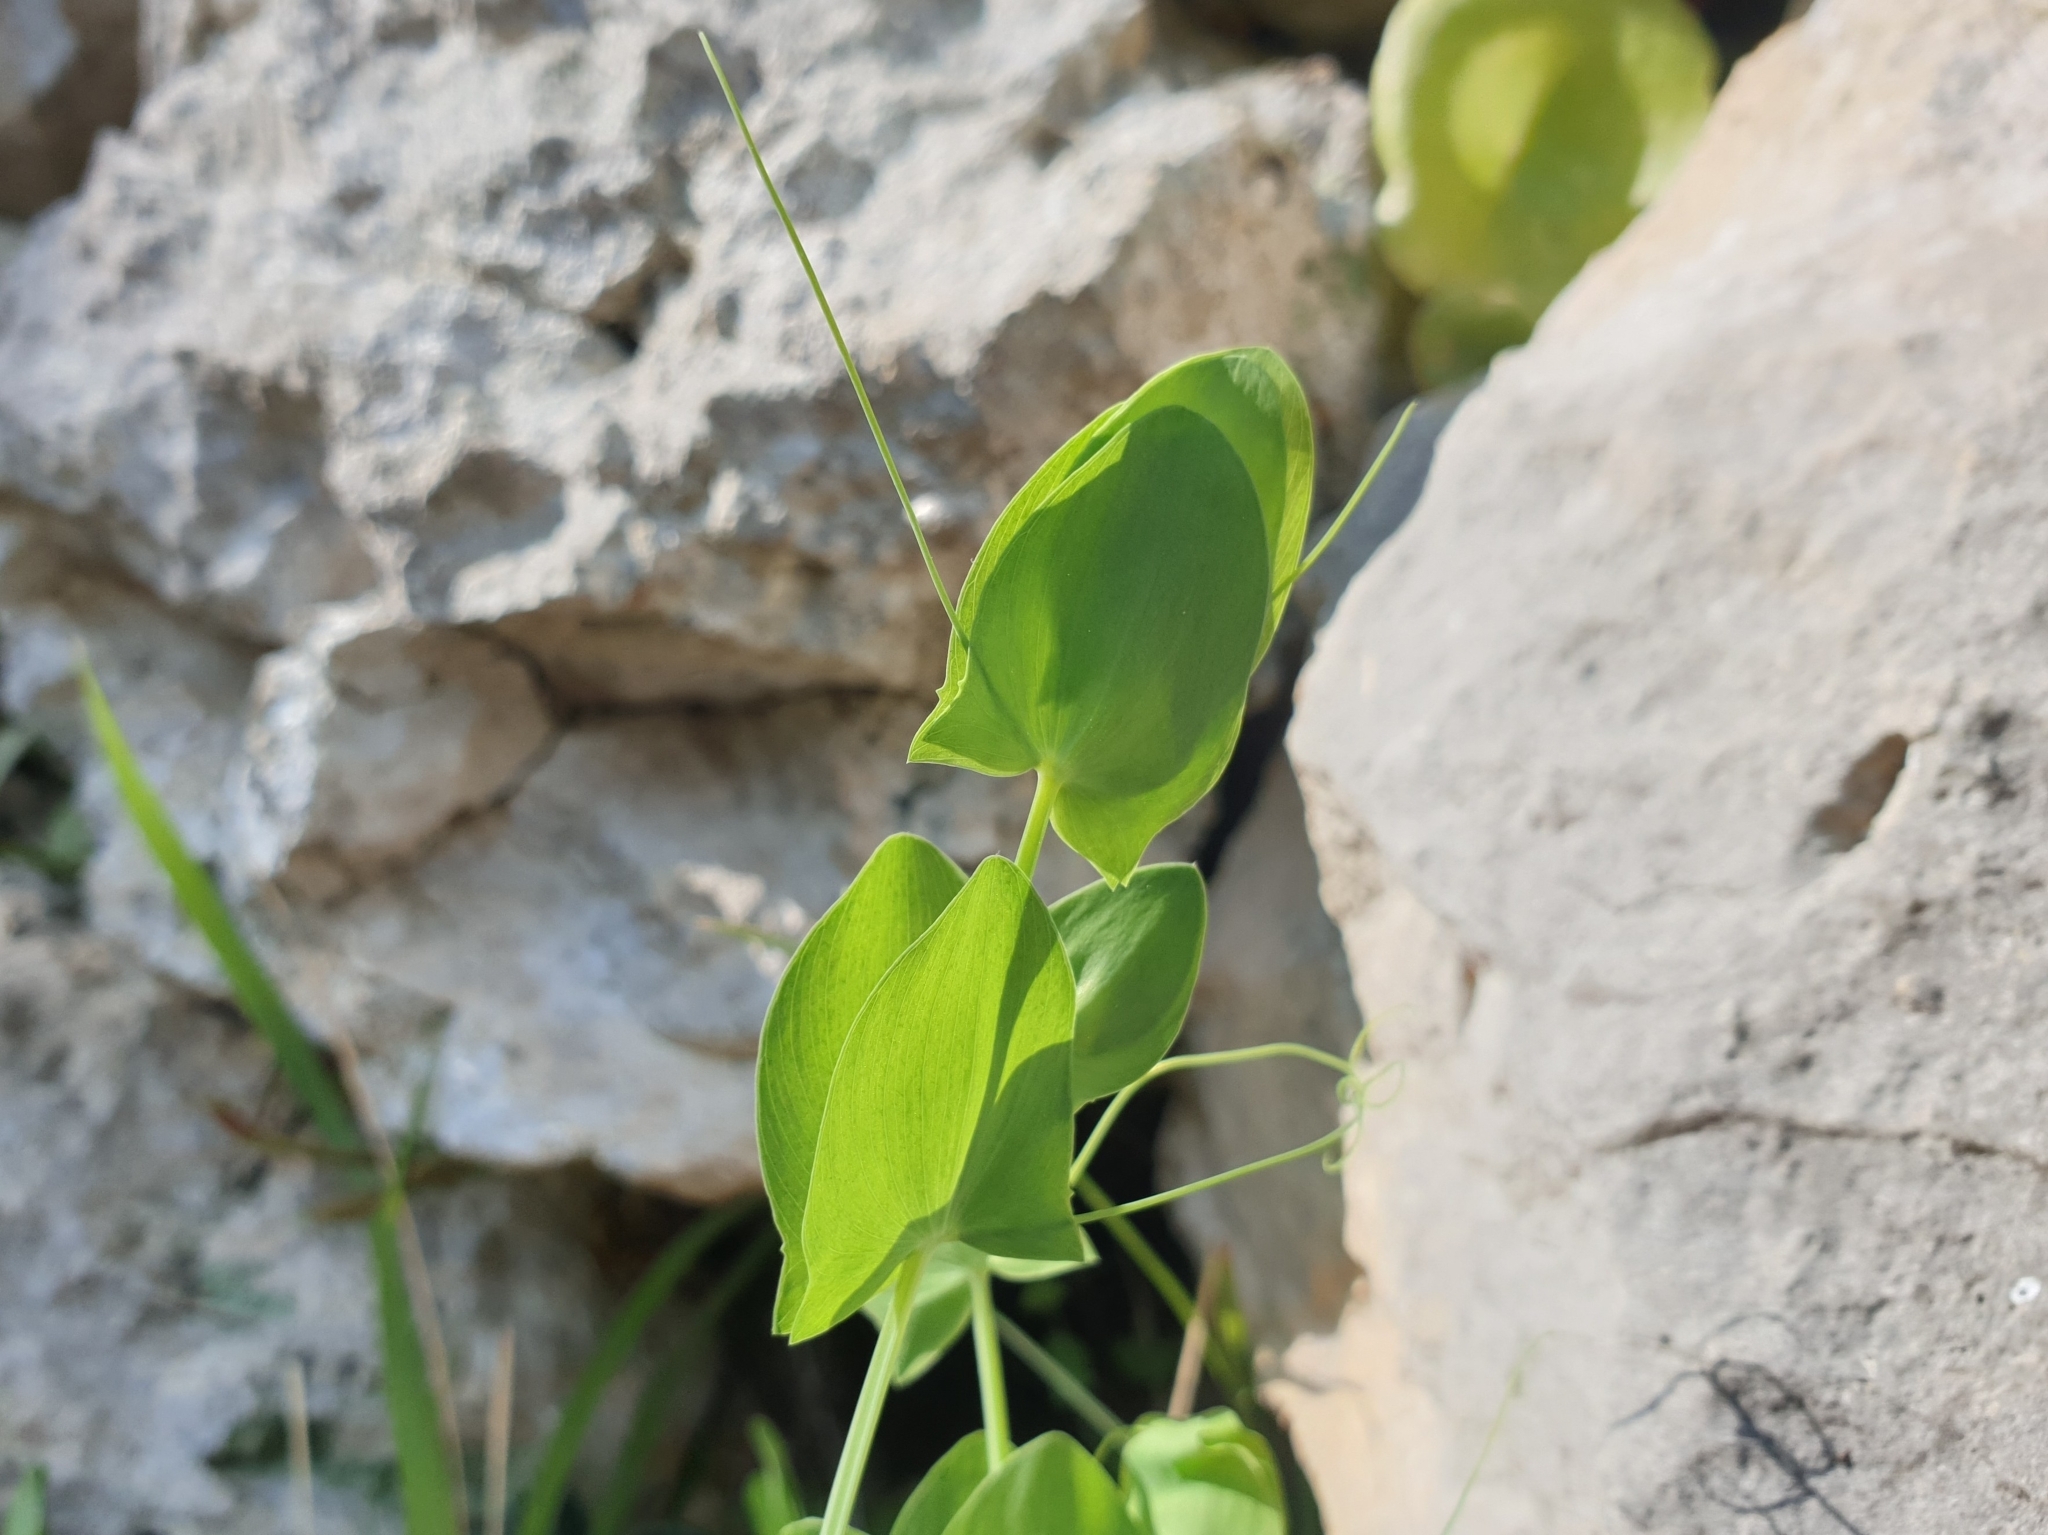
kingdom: Plantae
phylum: Tracheophyta
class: Magnoliopsida
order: Fabales
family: Fabaceae
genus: Lathyrus
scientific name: Lathyrus aphaca
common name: Yellow vetchling
